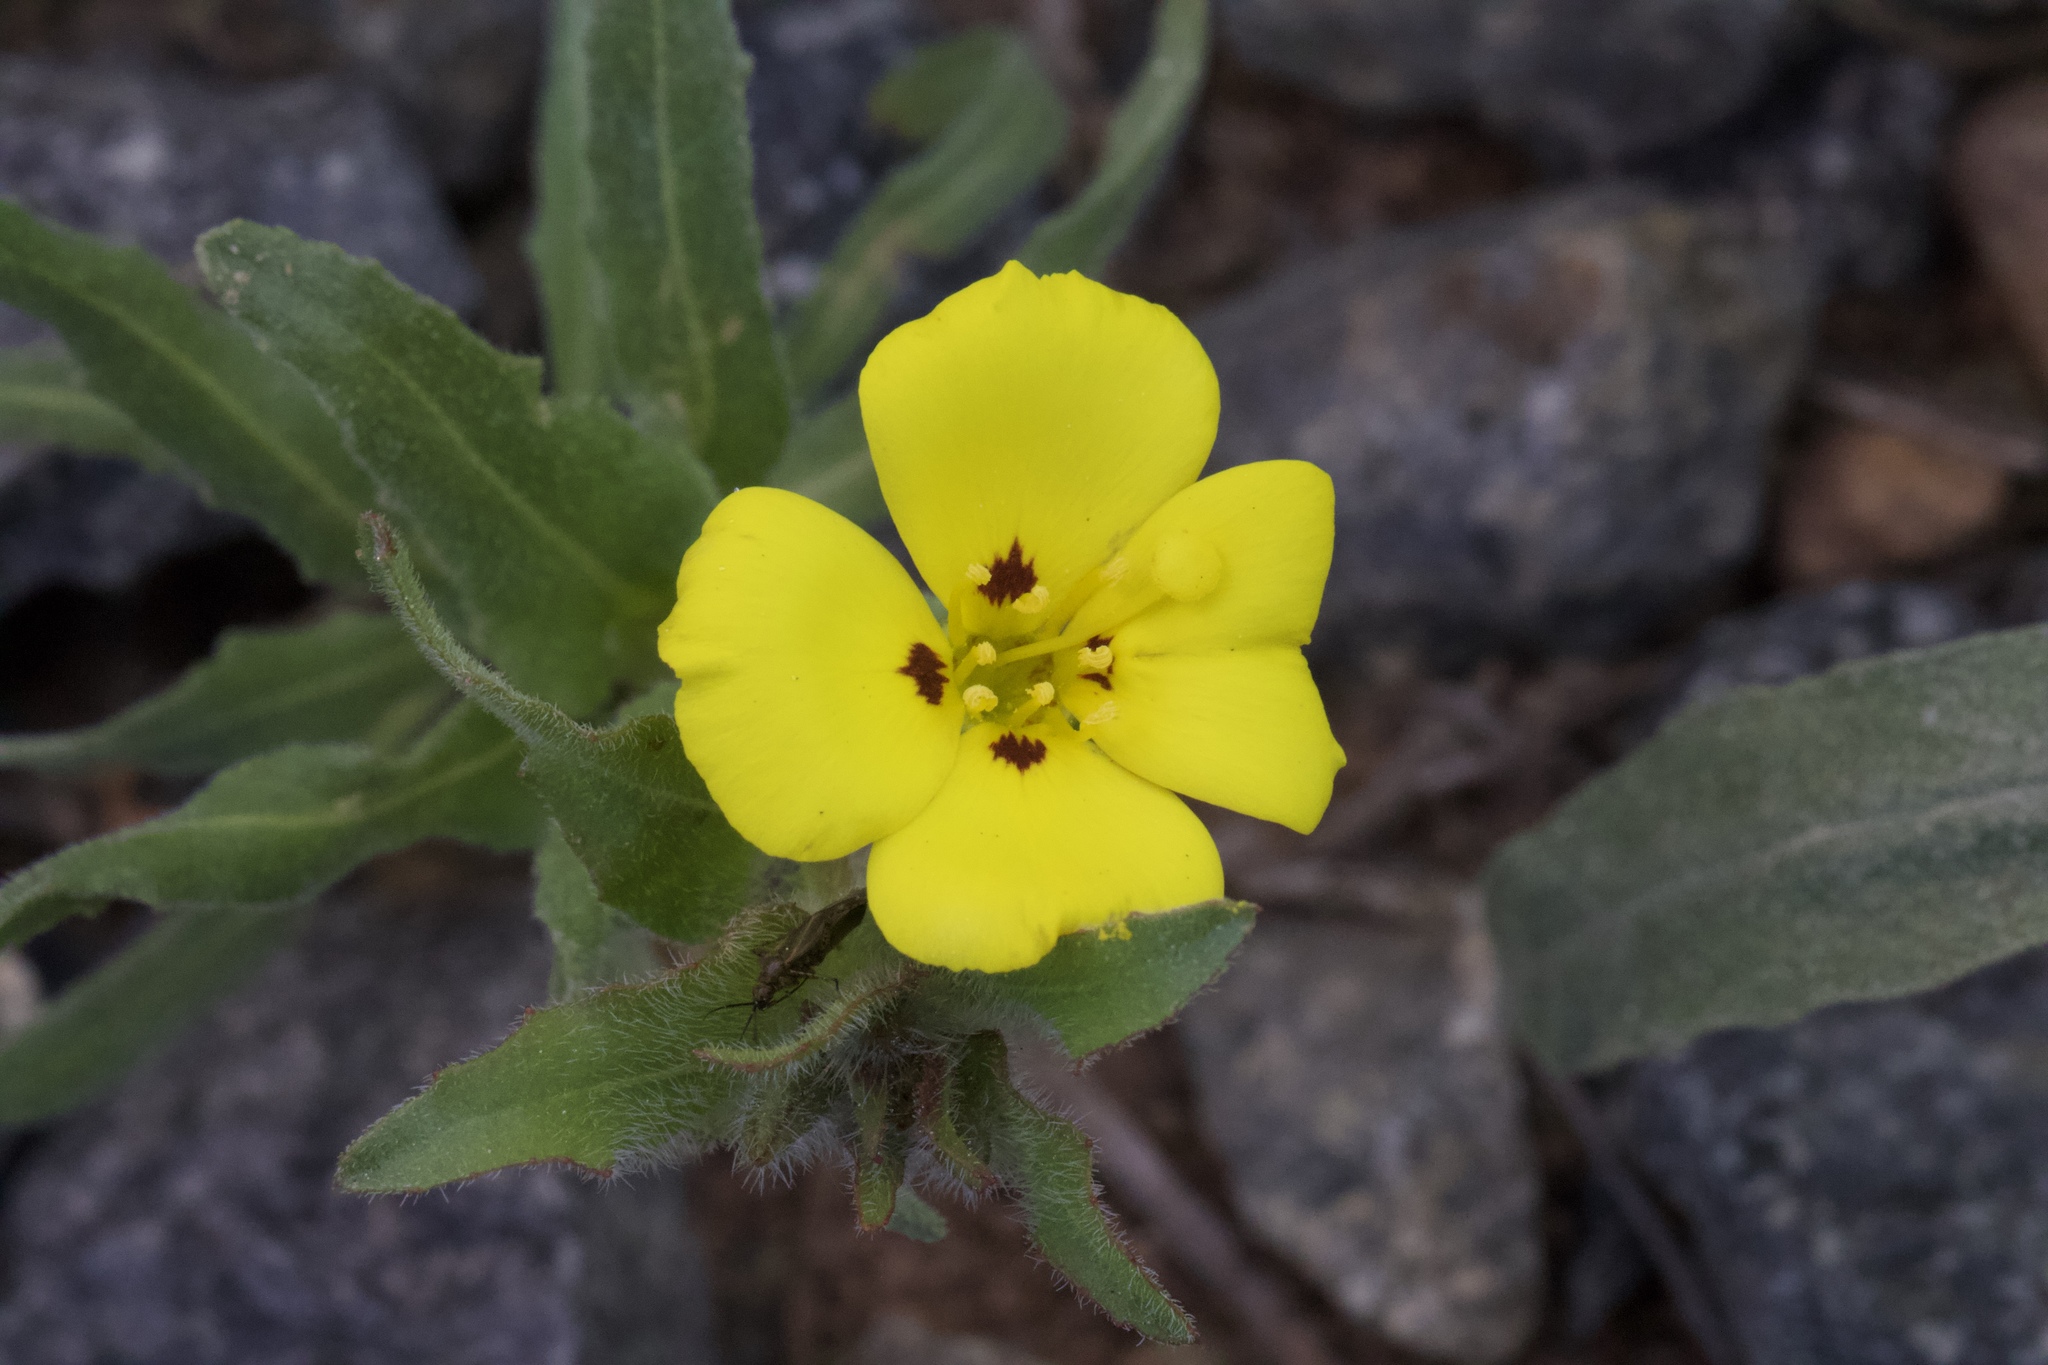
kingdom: Plantae
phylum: Tracheophyta
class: Magnoliopsida
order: Myrtales
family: Onagraceae
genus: Camissoniopsis
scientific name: Camissoniopsis bistorta
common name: Southern suncup
